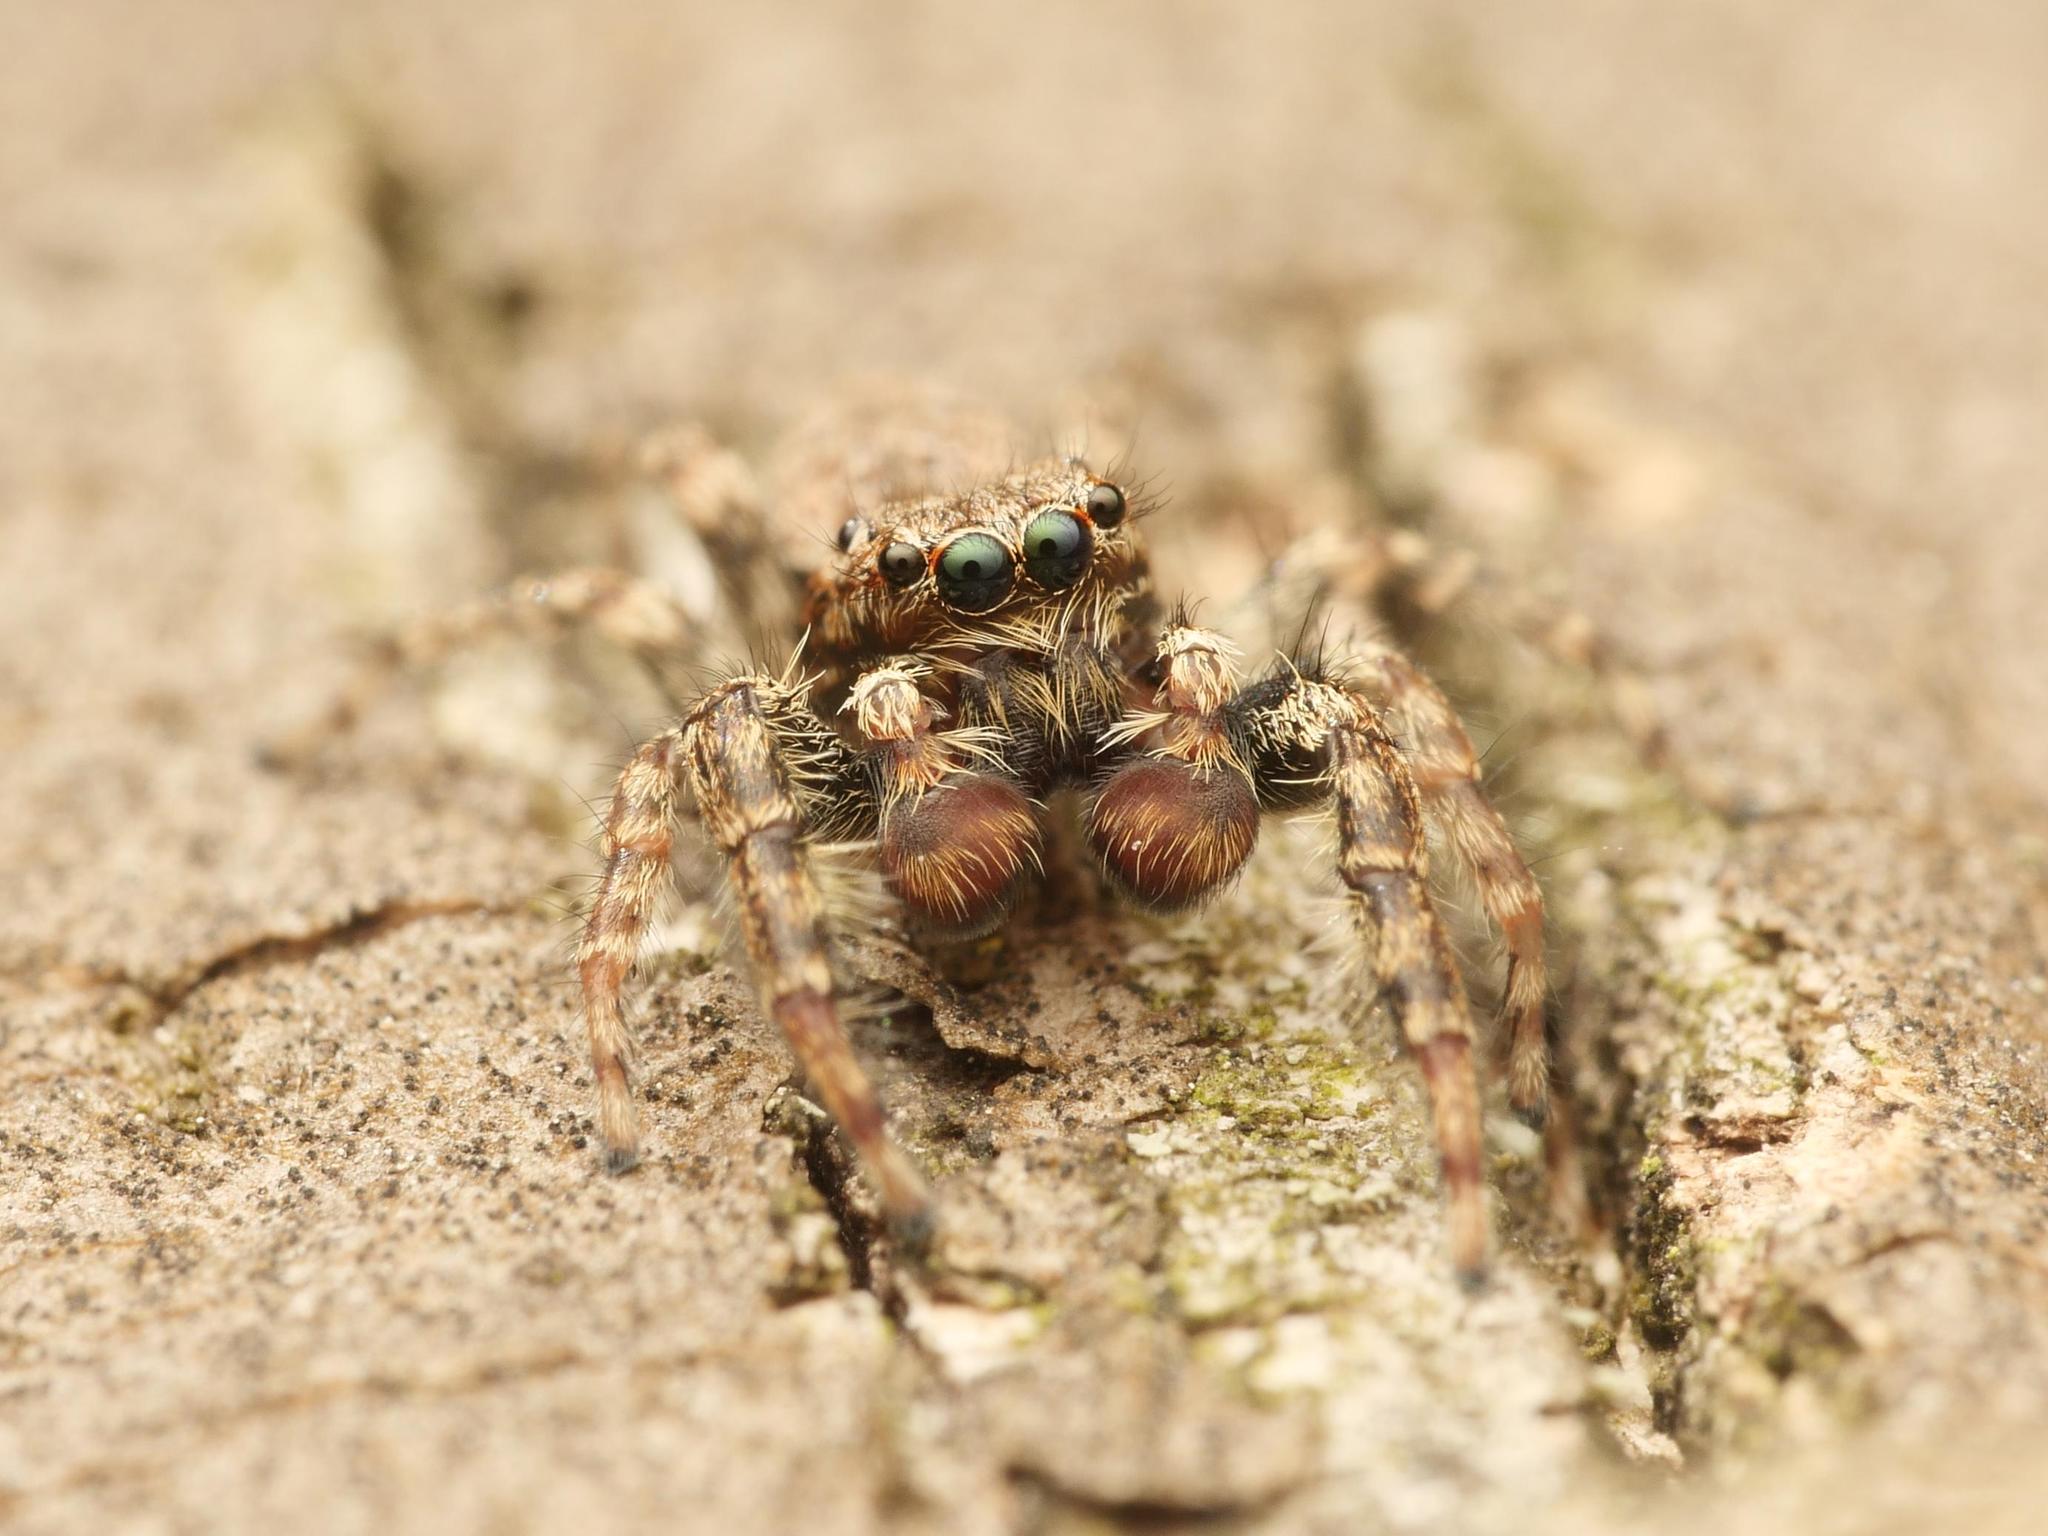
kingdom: Animalia
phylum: Arthropoda
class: Arachnida
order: Araneae
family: Salticidae
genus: Marpissa
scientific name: Marpissa muscosa
